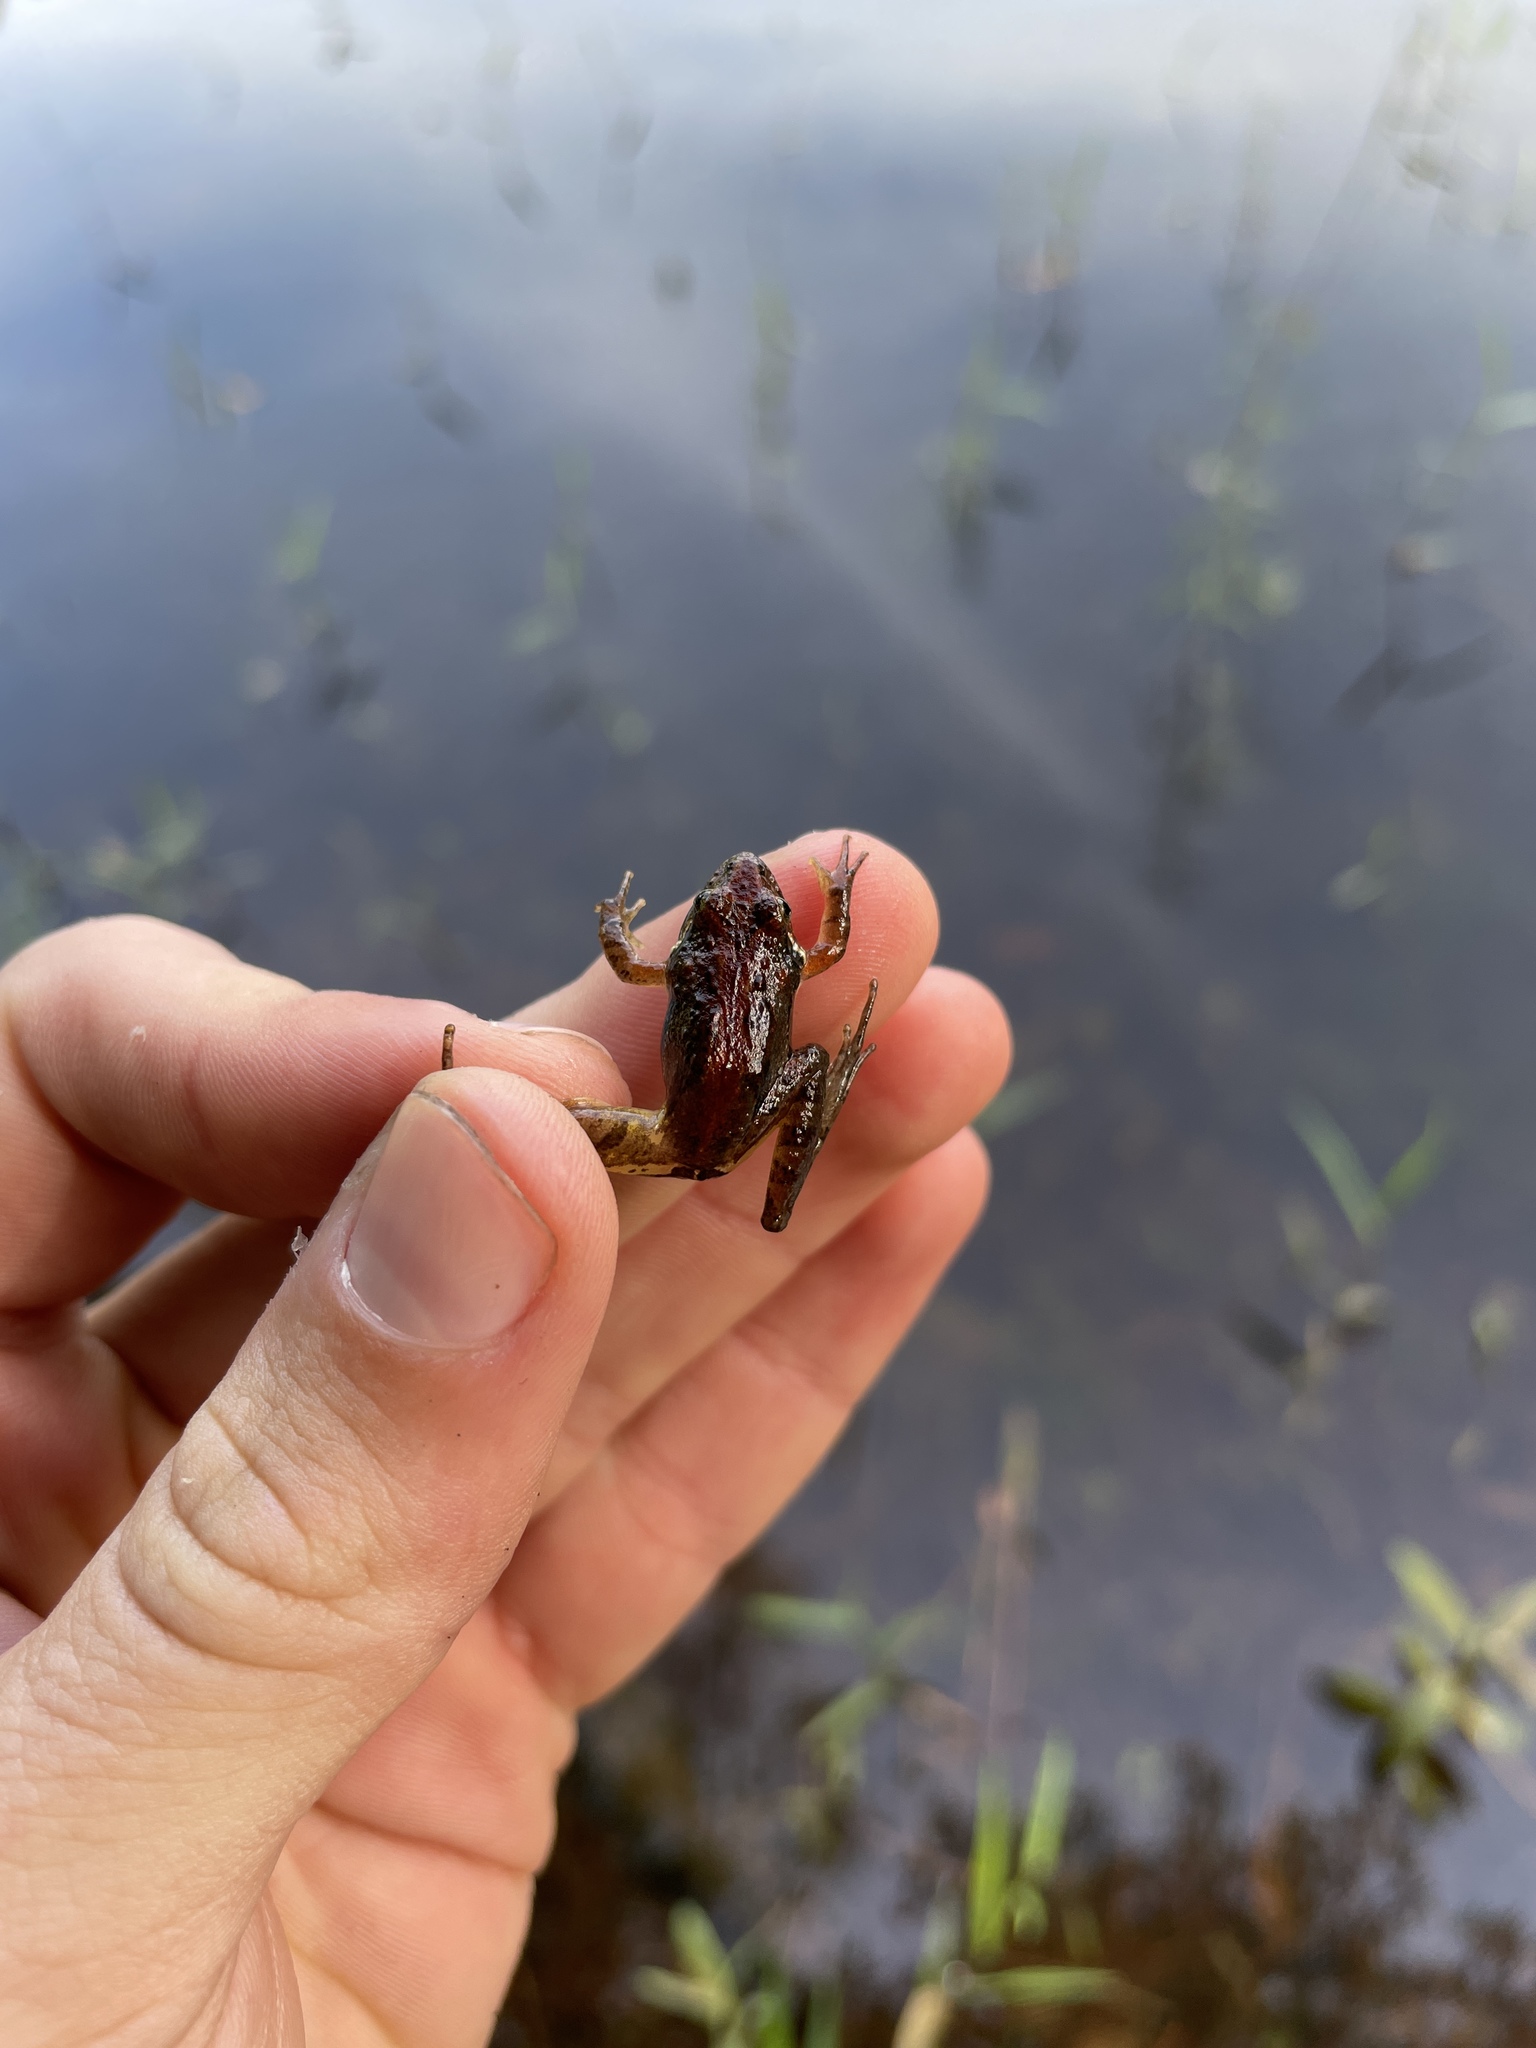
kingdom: Animalia
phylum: Chordata
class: Amphibia
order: Anura
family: Hylidae
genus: Acris
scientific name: Acris gryllus
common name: Southern cricket frog
